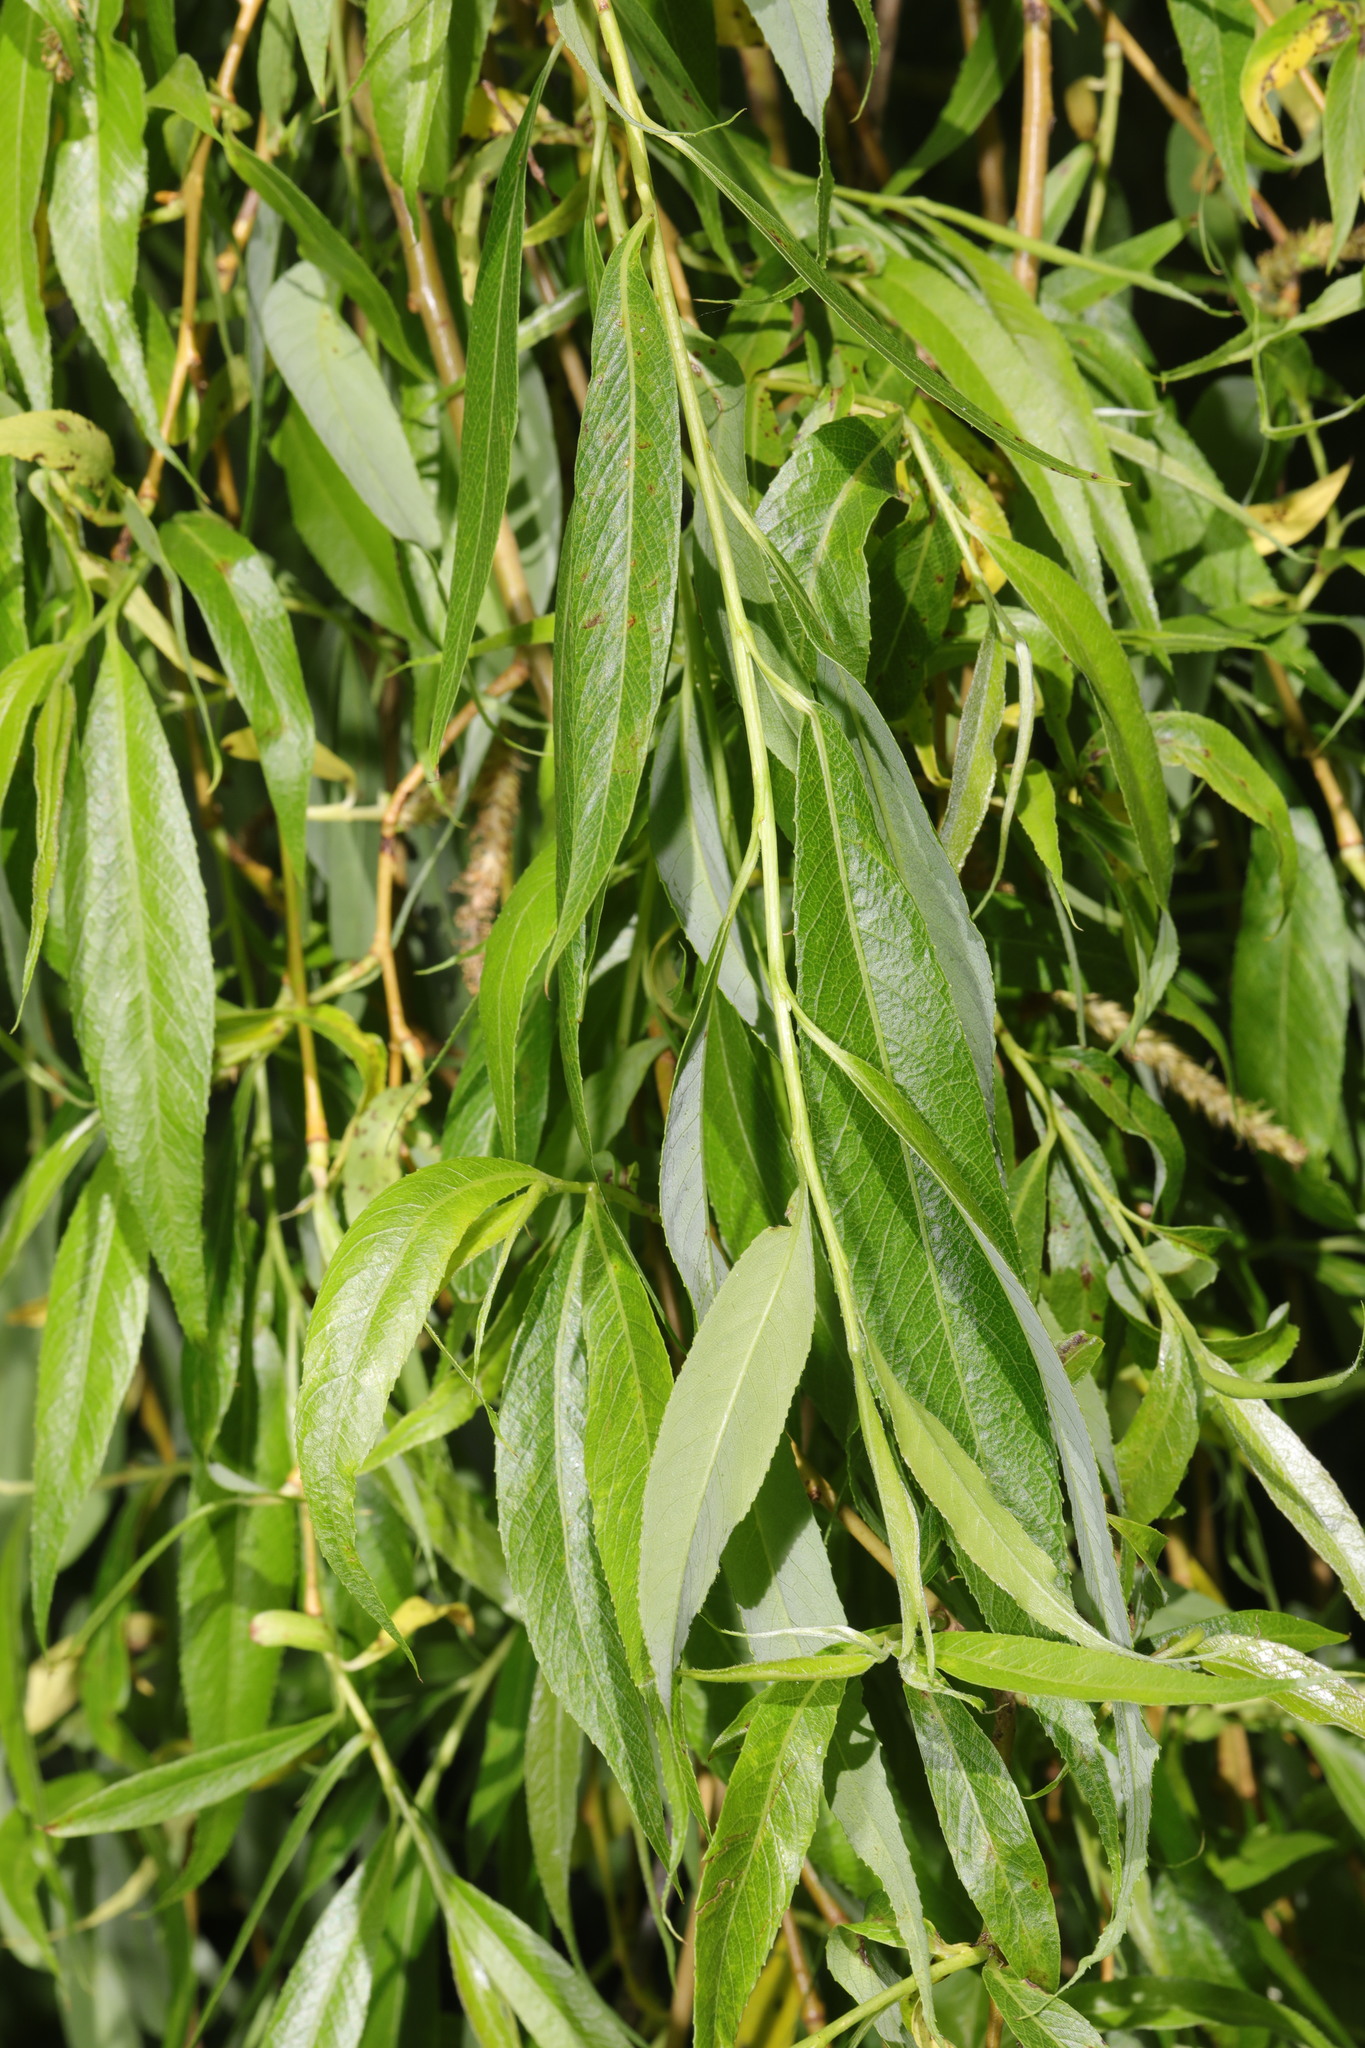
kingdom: Plantae
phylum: Tracheophyta
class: Magnoliopsida
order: Malpighiales
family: Salicaceae
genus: Salix
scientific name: Salix pendulina
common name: Wisconsin weeping willow
